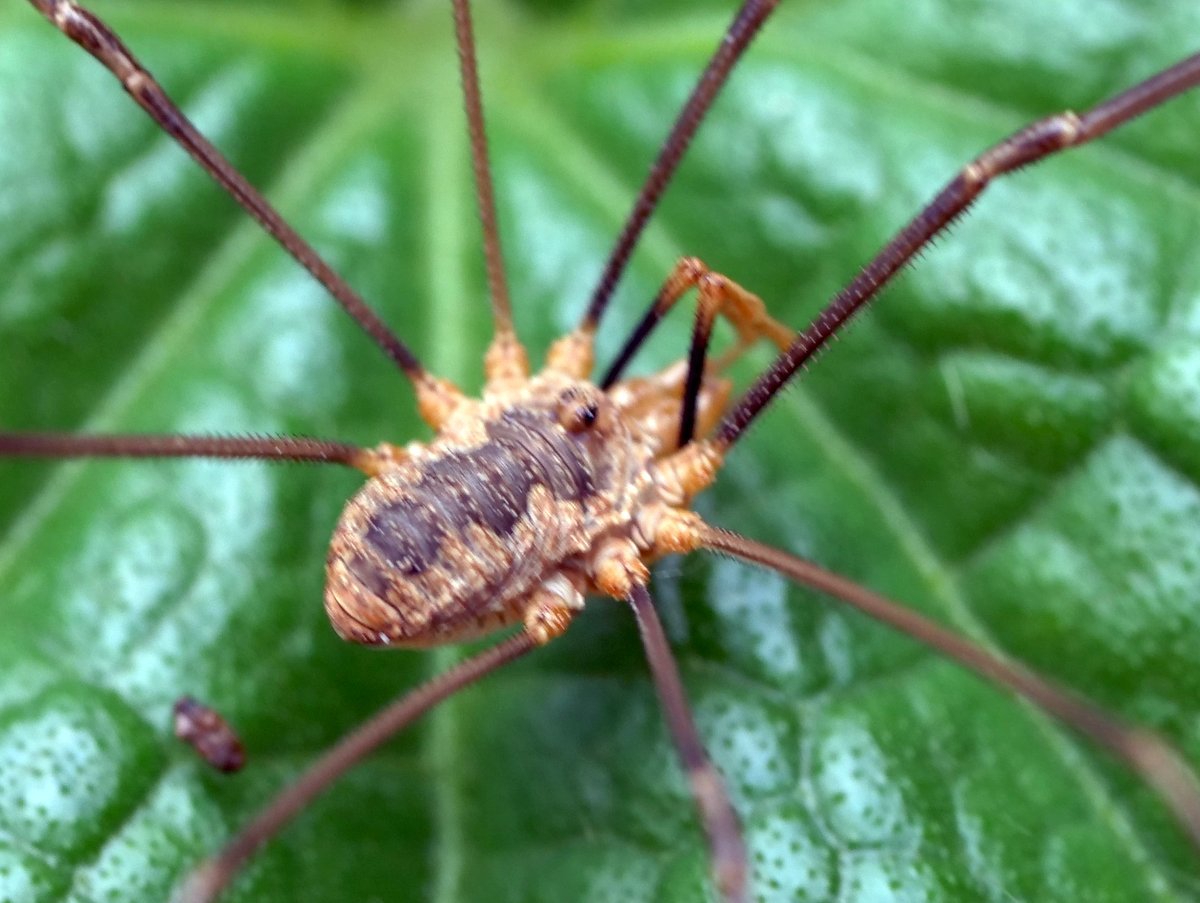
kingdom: Animalia
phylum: Arthropoda
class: Arachnida
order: Opiliones
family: Phalangiidae
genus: Phalangium
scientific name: Phalangium opilio
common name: Daddy longleg
